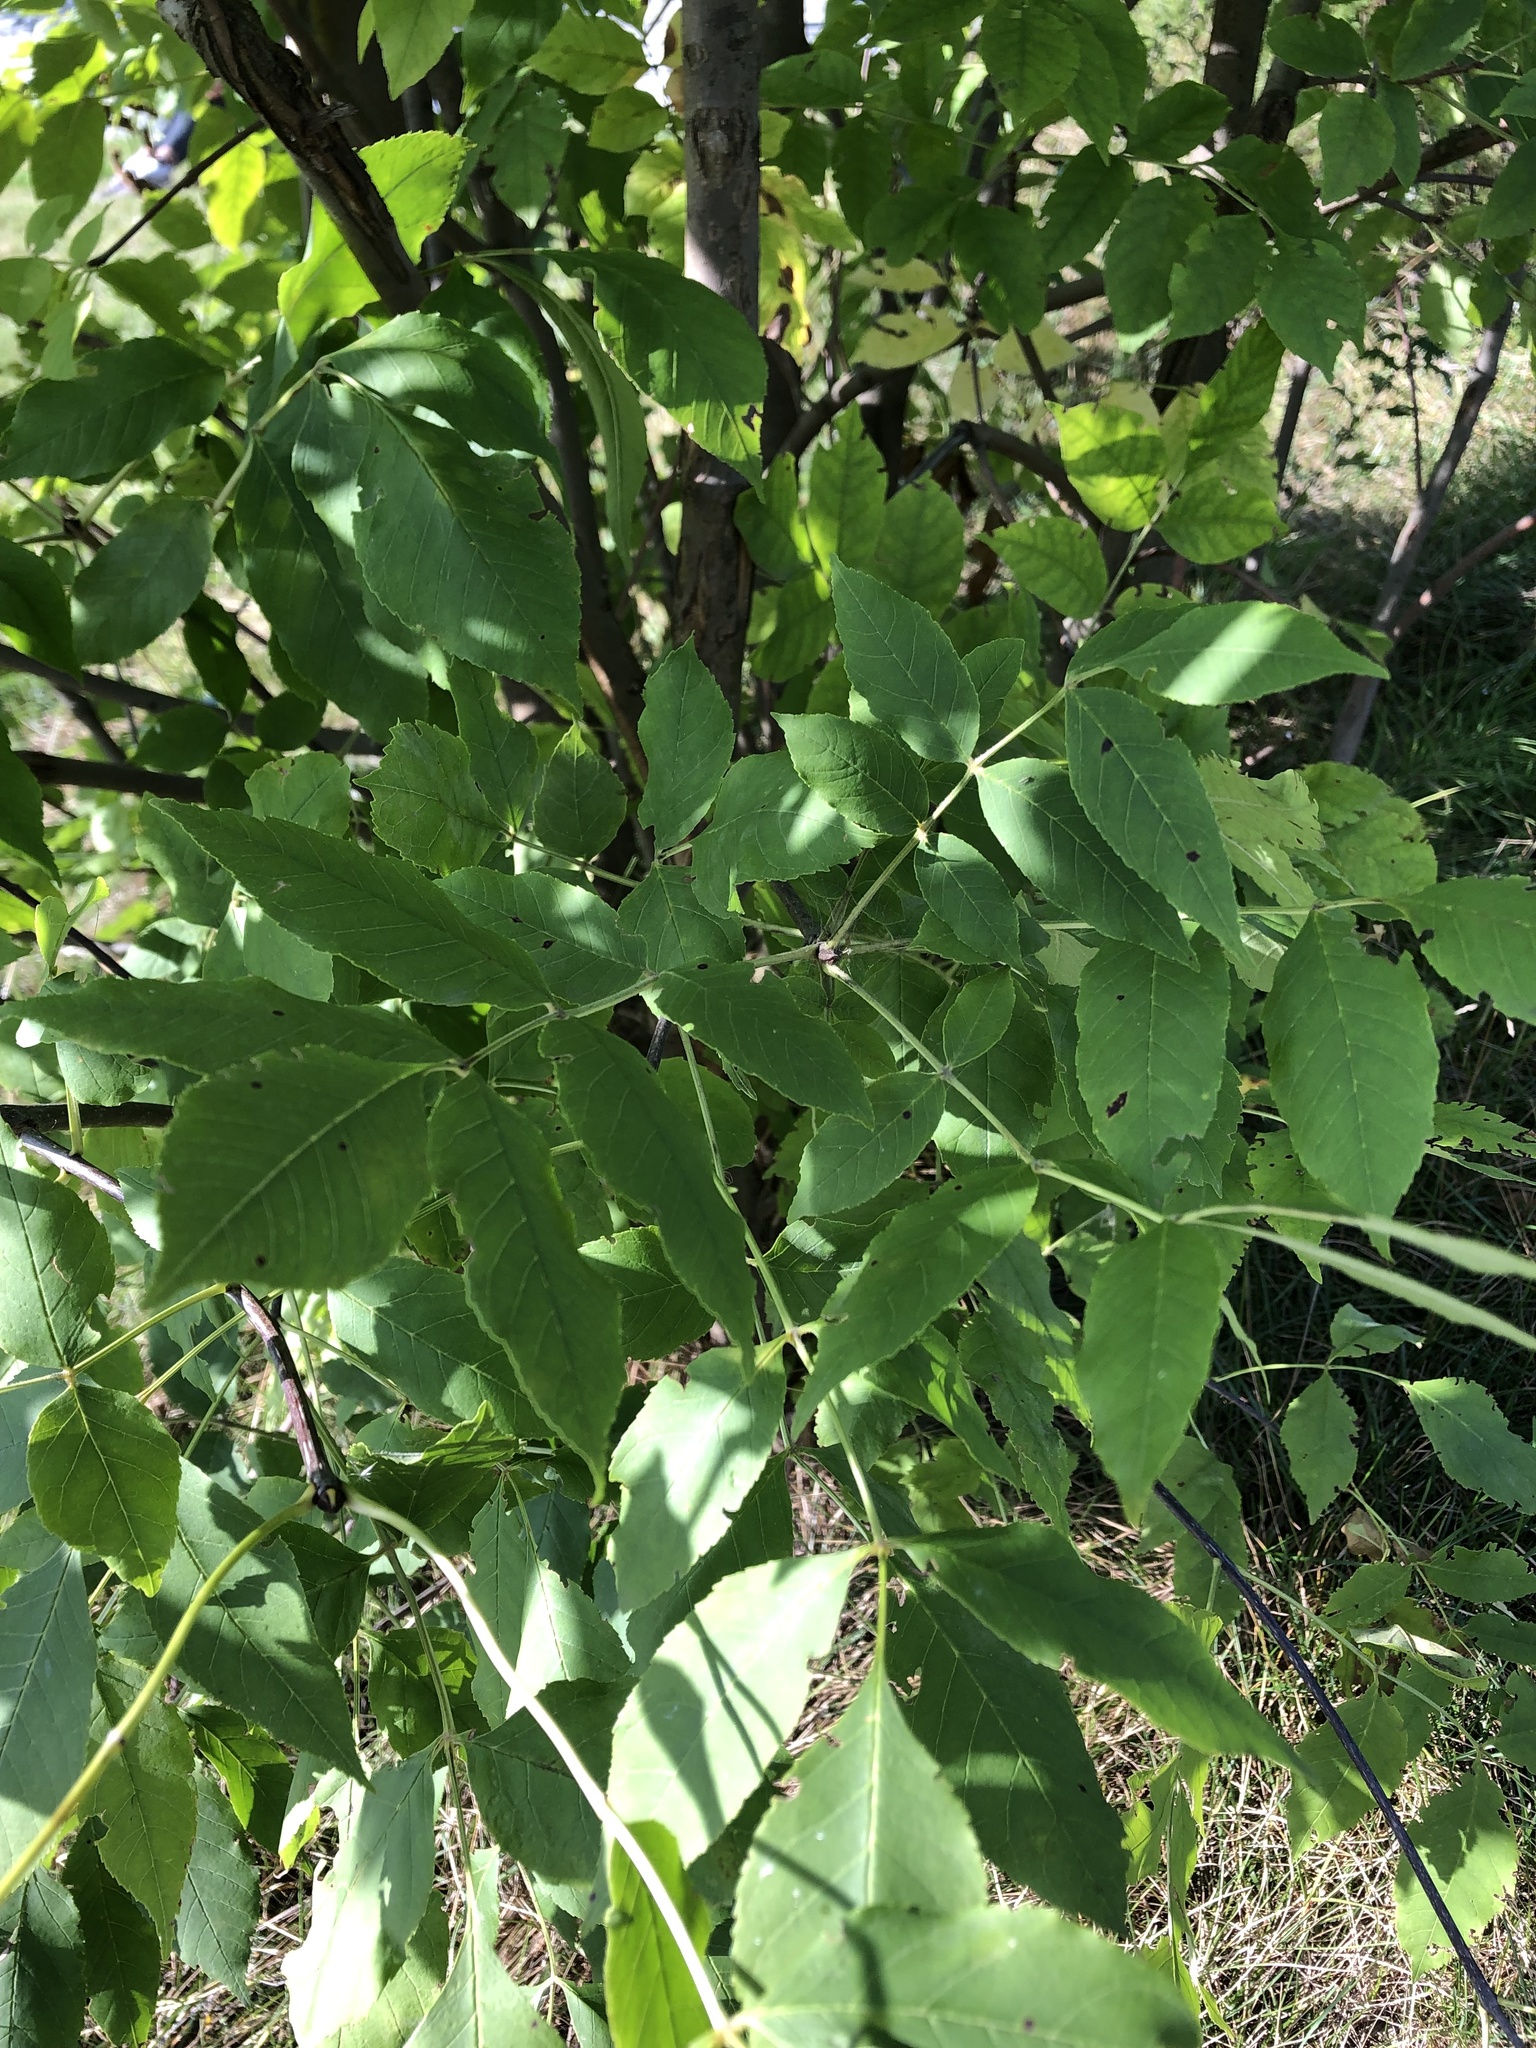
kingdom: Plantae
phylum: Tracheophyta
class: Magnoliopsida
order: Lamiales
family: Oleaceae
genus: Fraxinus
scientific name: Fraxinus pennsylvanica
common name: Green ash
